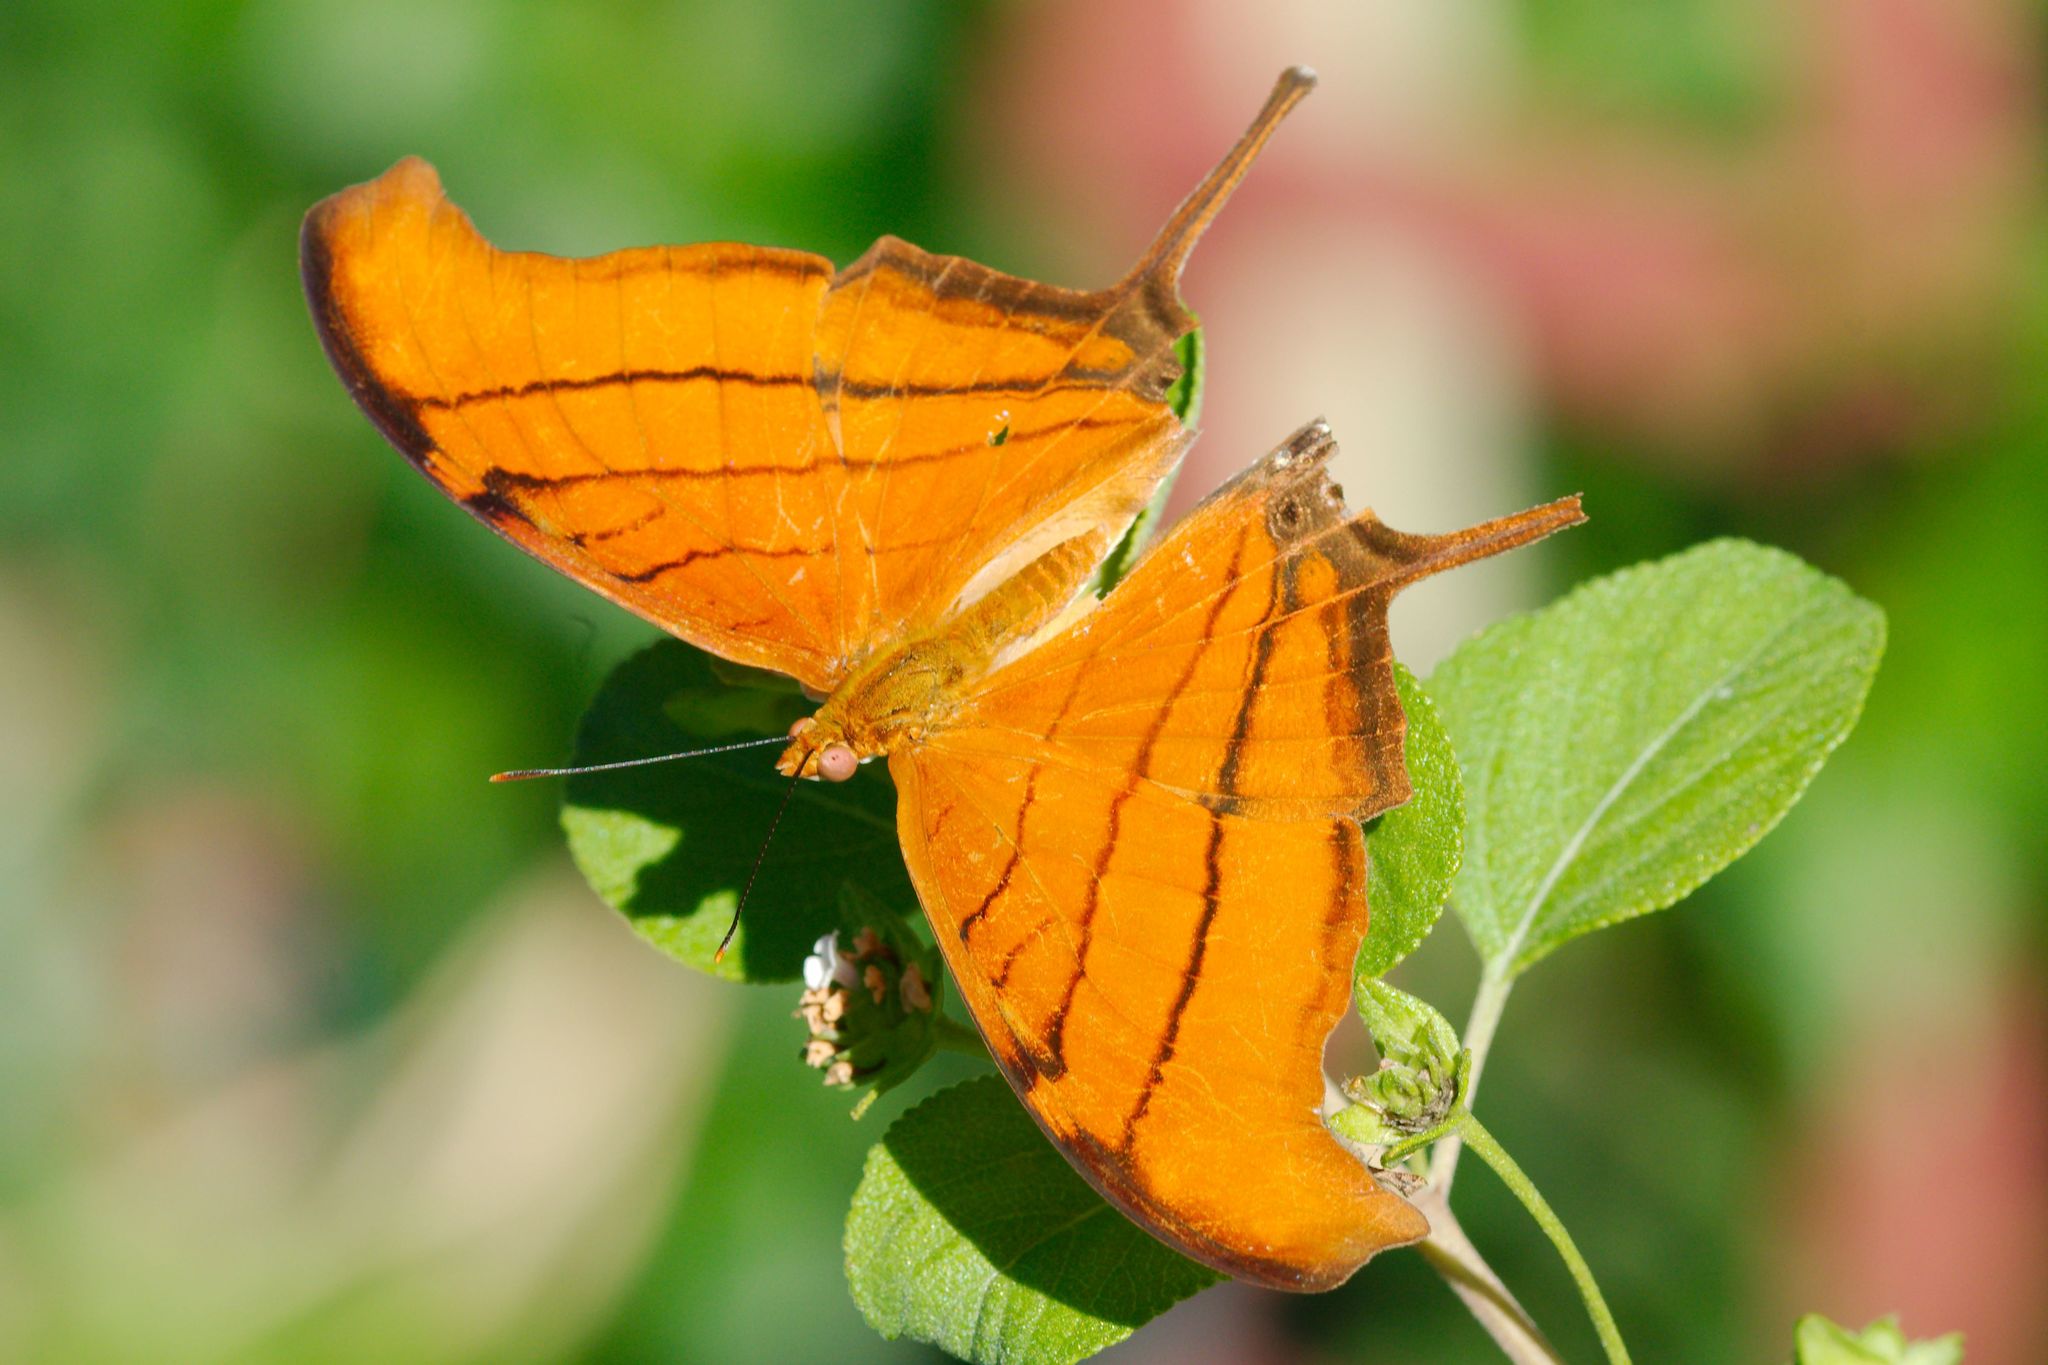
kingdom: Animalia
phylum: Arthropoda
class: Insecta
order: Lepidoptera
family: Nymphalidae
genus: Marpesia
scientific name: Marpesia petreus
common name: Red dagger wing
